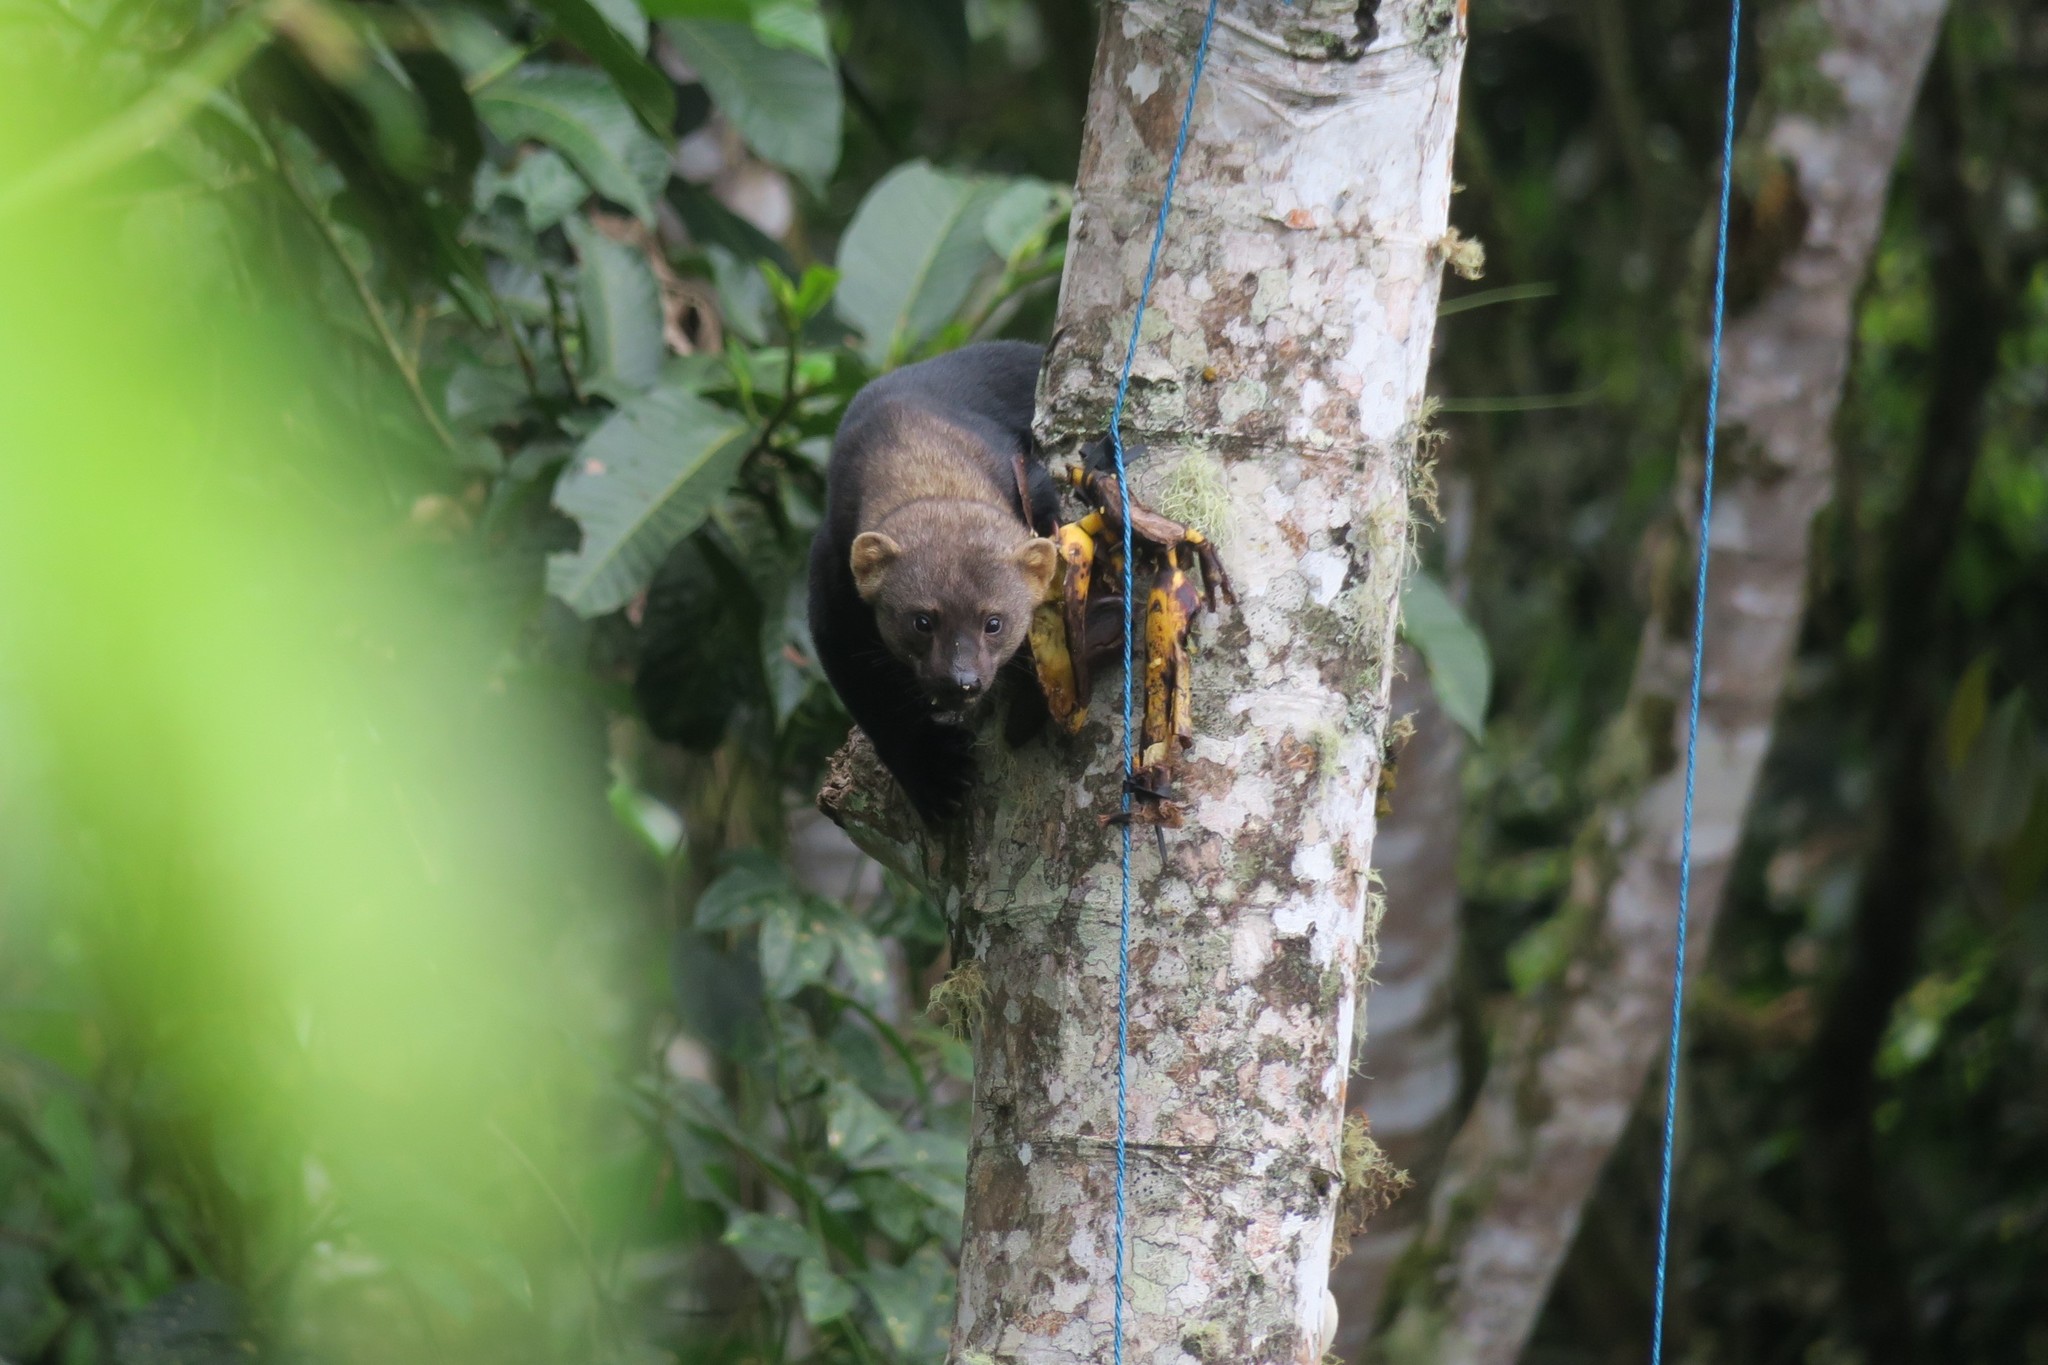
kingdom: Animalia
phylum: Chordata
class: Mammalia
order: Carnivora
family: Mustelidae
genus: Eira
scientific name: Eira barbara
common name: Tayra
